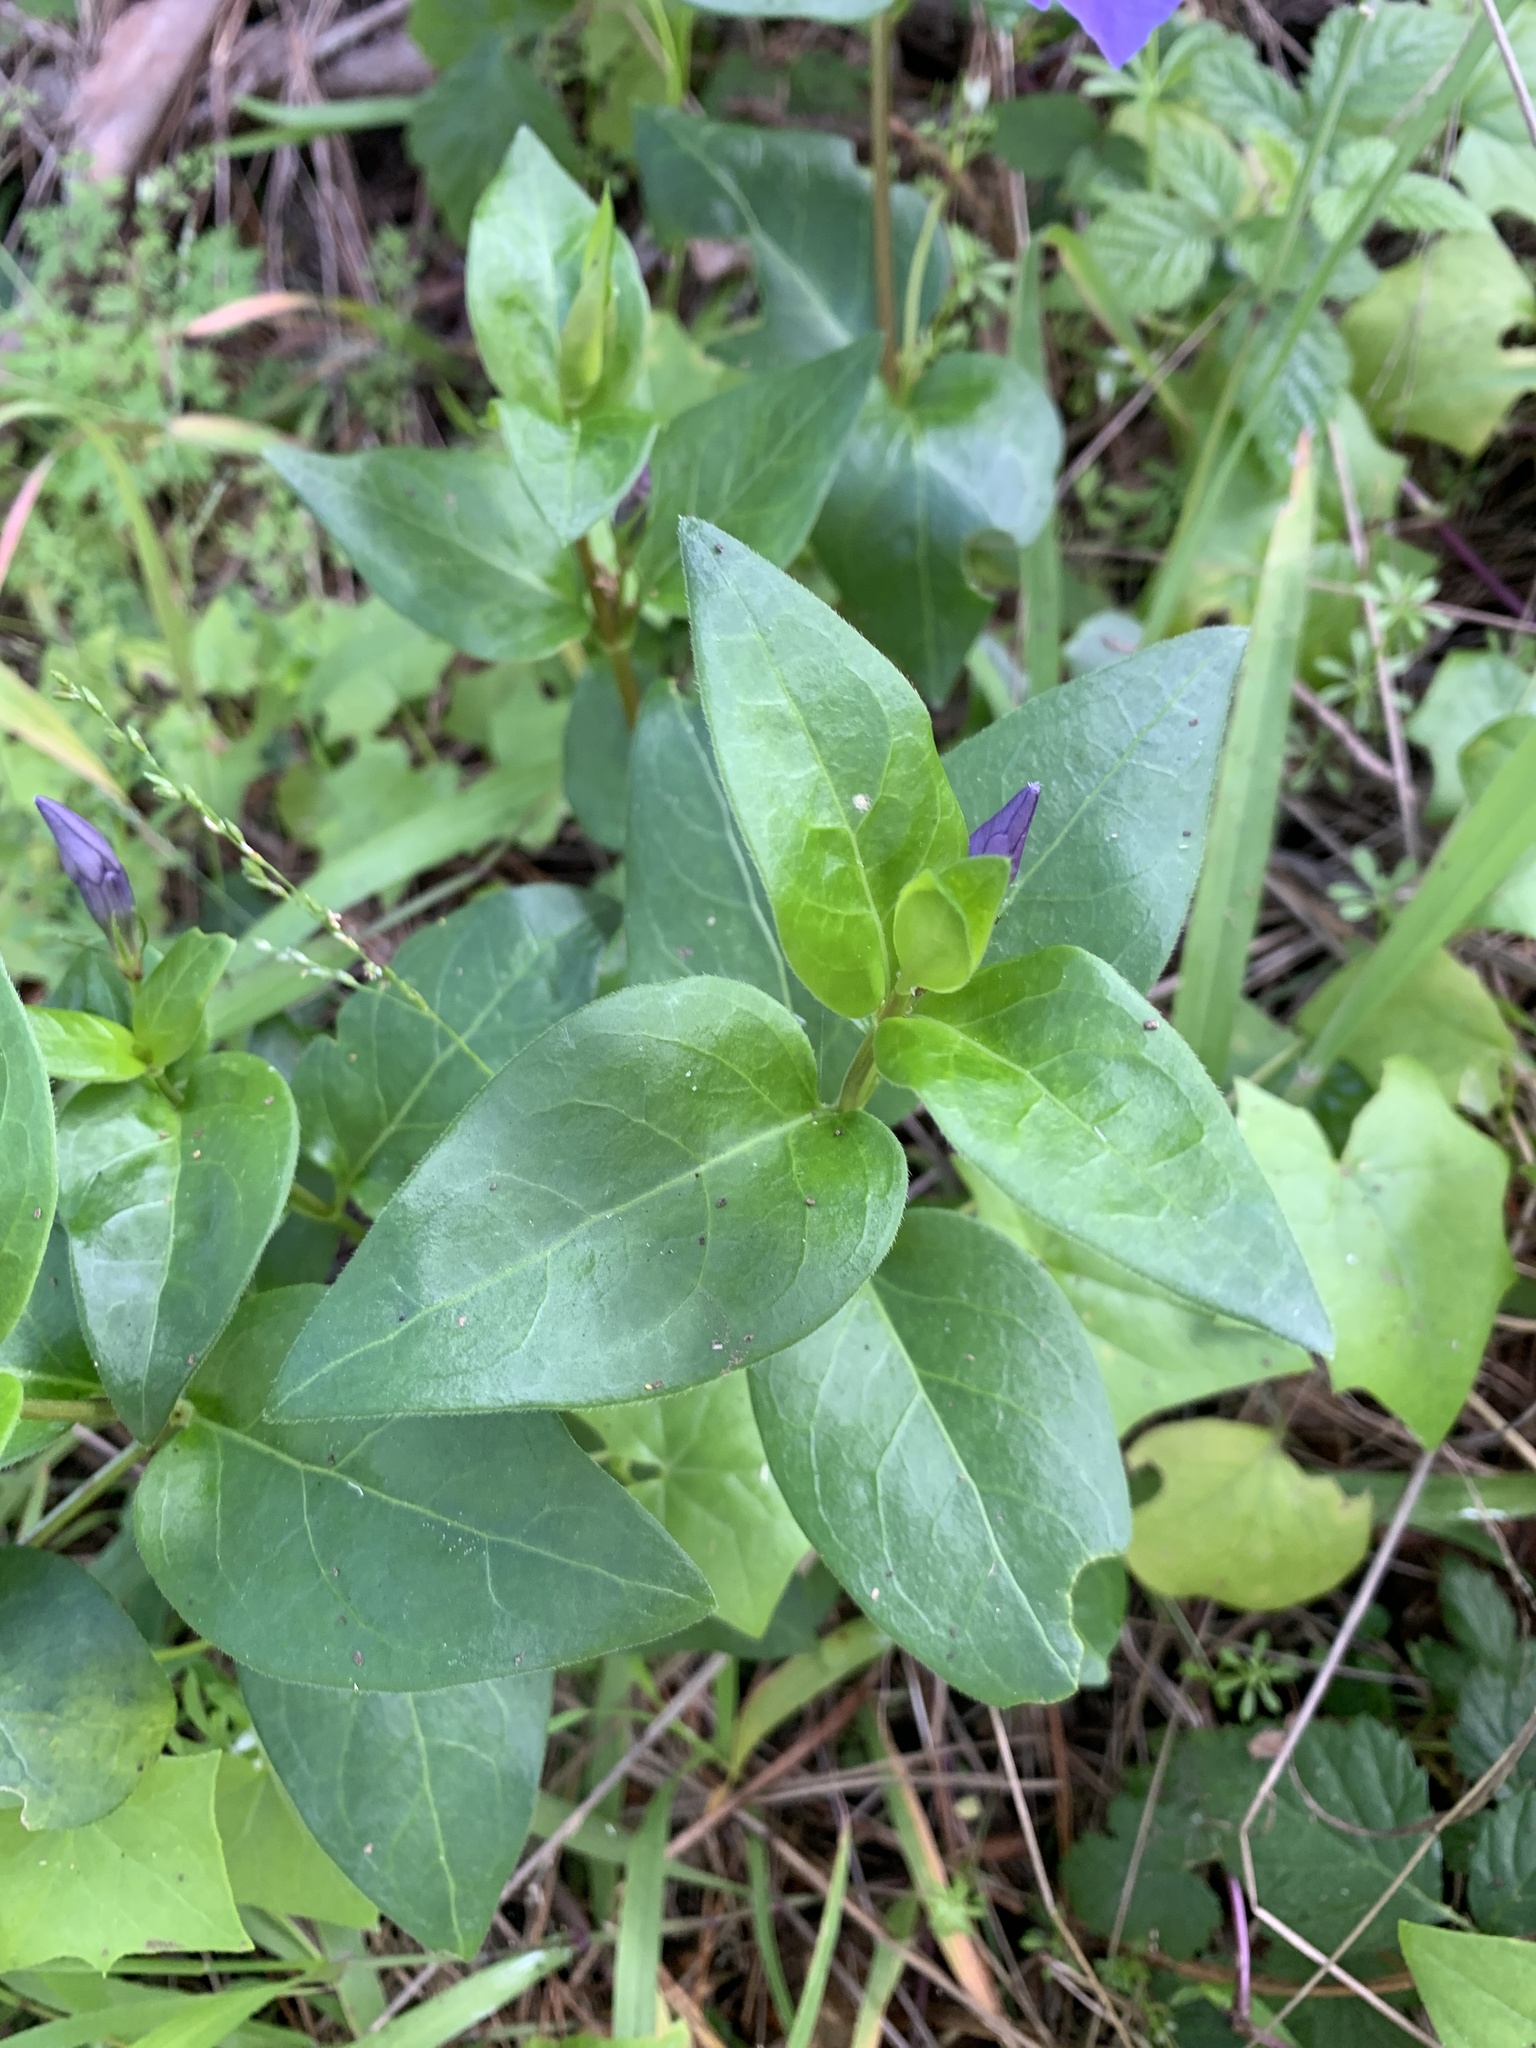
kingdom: Plantae
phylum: Tracheophyta
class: Magnoliopsida
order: Gentianales
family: Apocynaceae
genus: Vinca
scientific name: Vinca major
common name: Greater periwinkle
